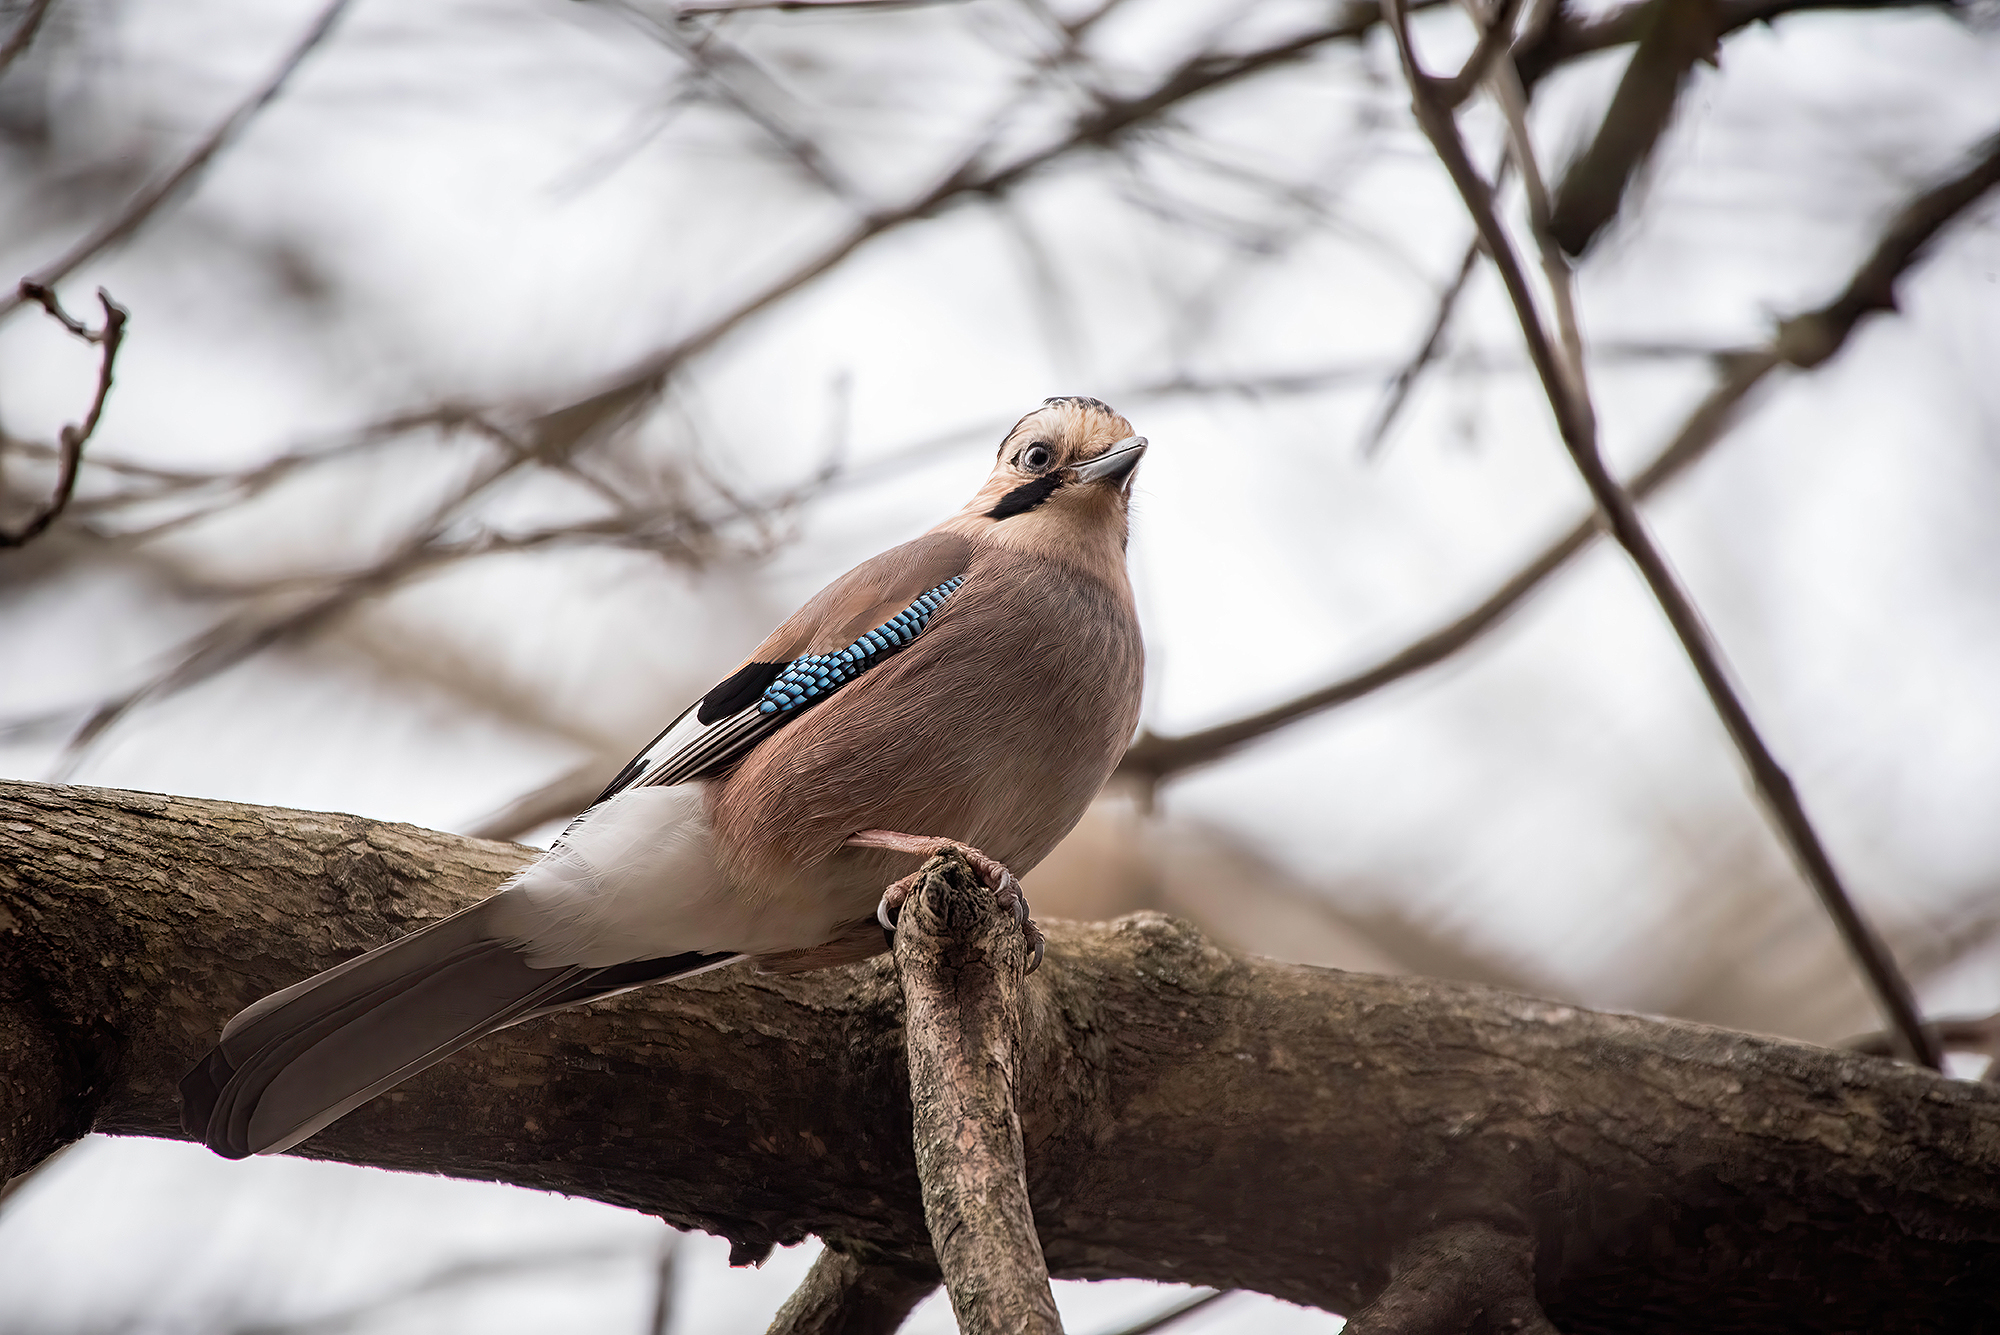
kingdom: Animalia
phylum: Chordata
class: Aves
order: Passeriformes
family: Corvidae
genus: Garrulus
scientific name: Garrulus glandarius
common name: Eurasian jay
